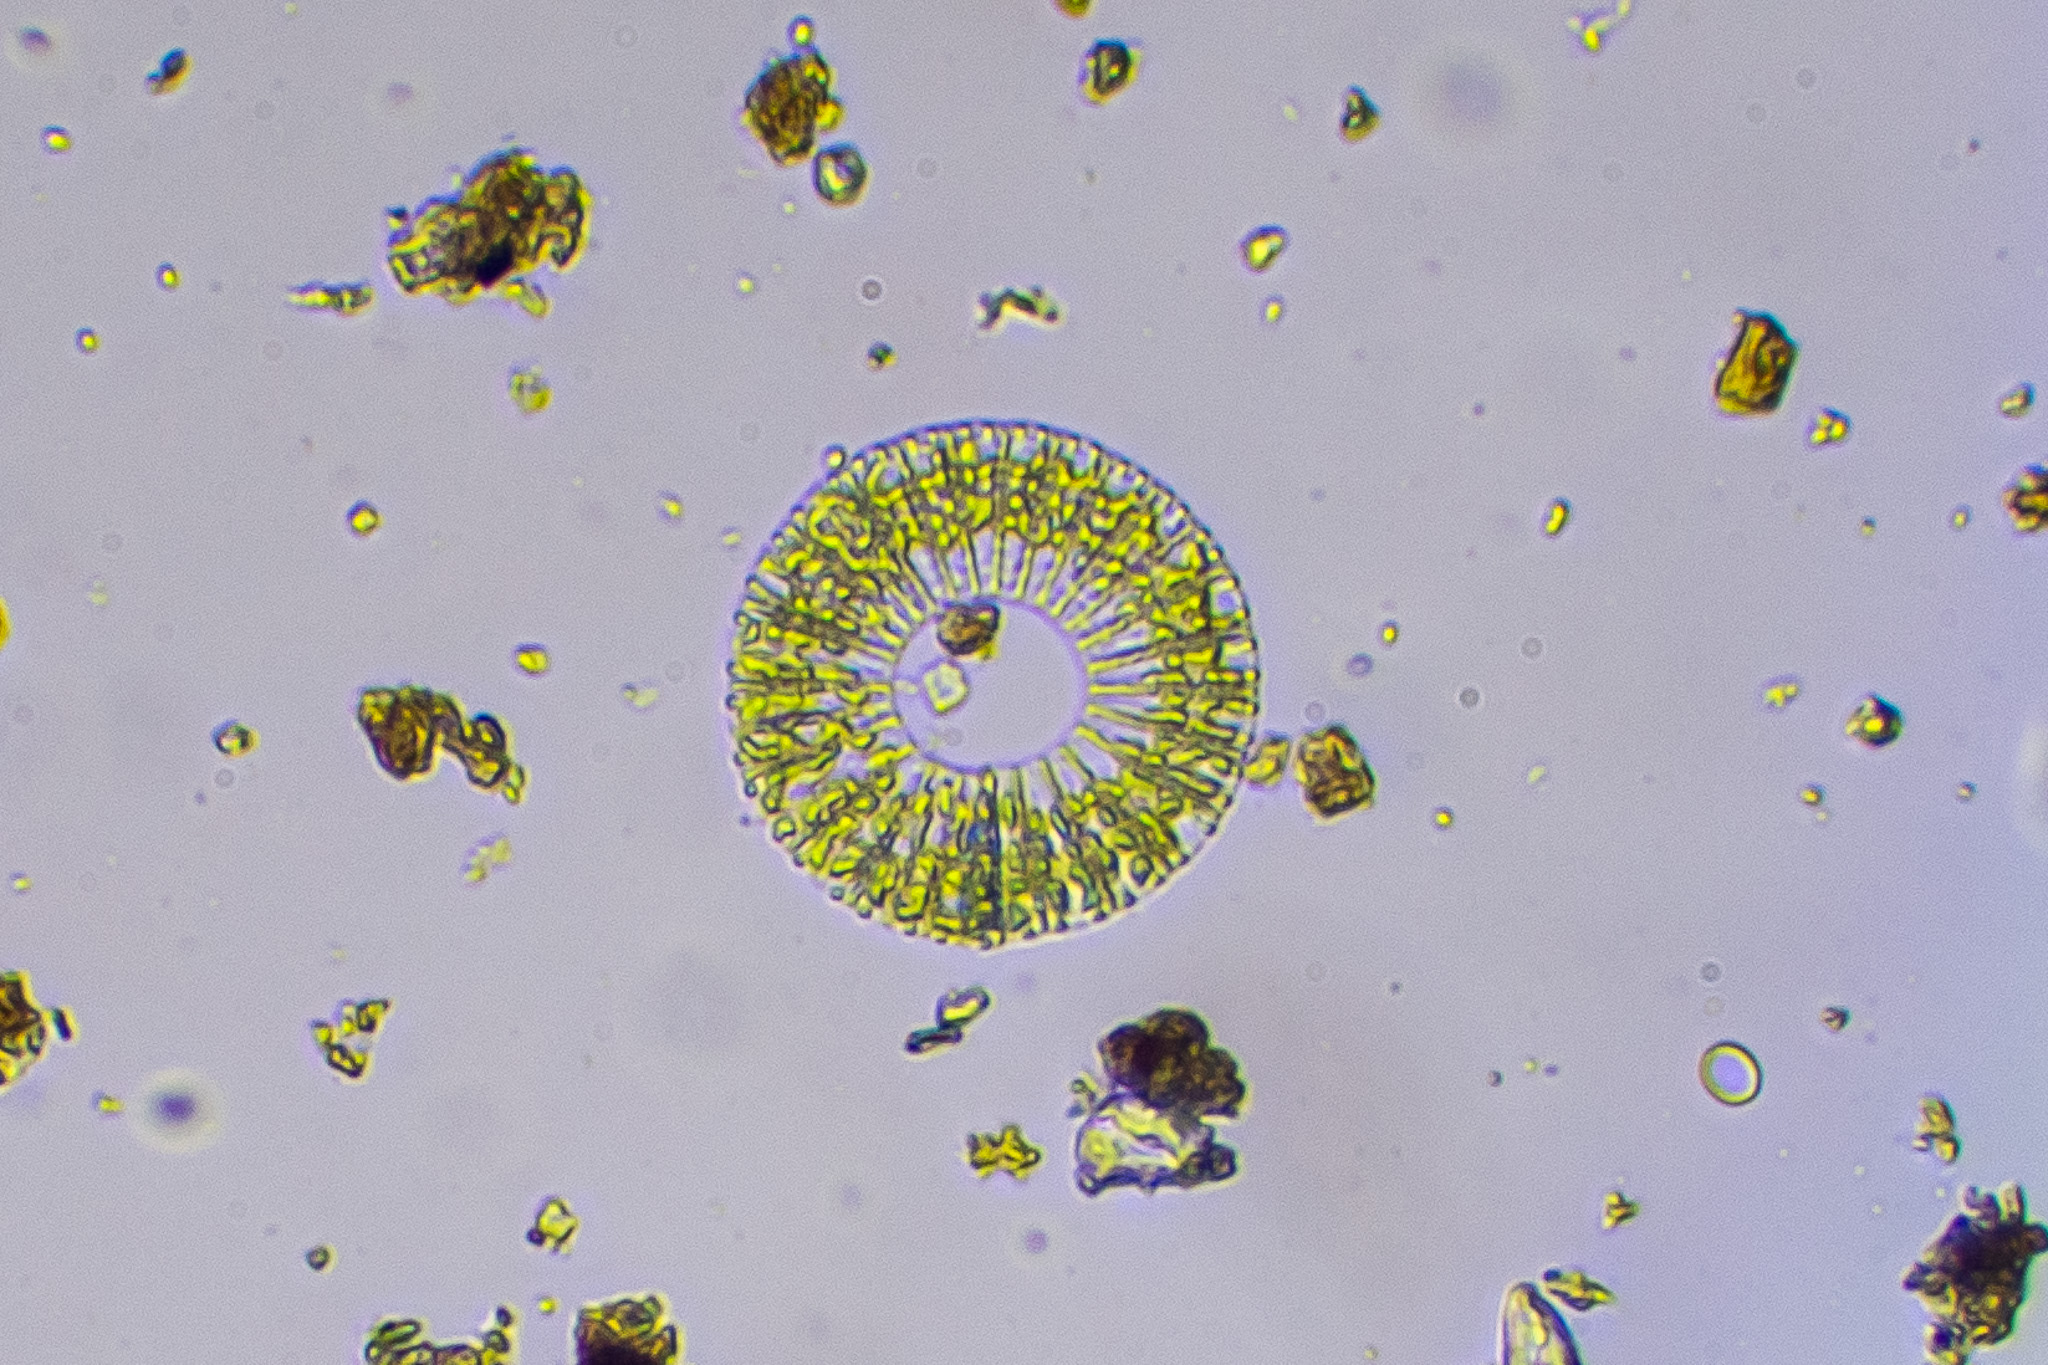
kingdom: Chromista
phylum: Ochrophyta
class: Bacillariophyceae
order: Fragilariales
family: Fragilariaceae
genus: Meridion
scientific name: Meridion circulare
